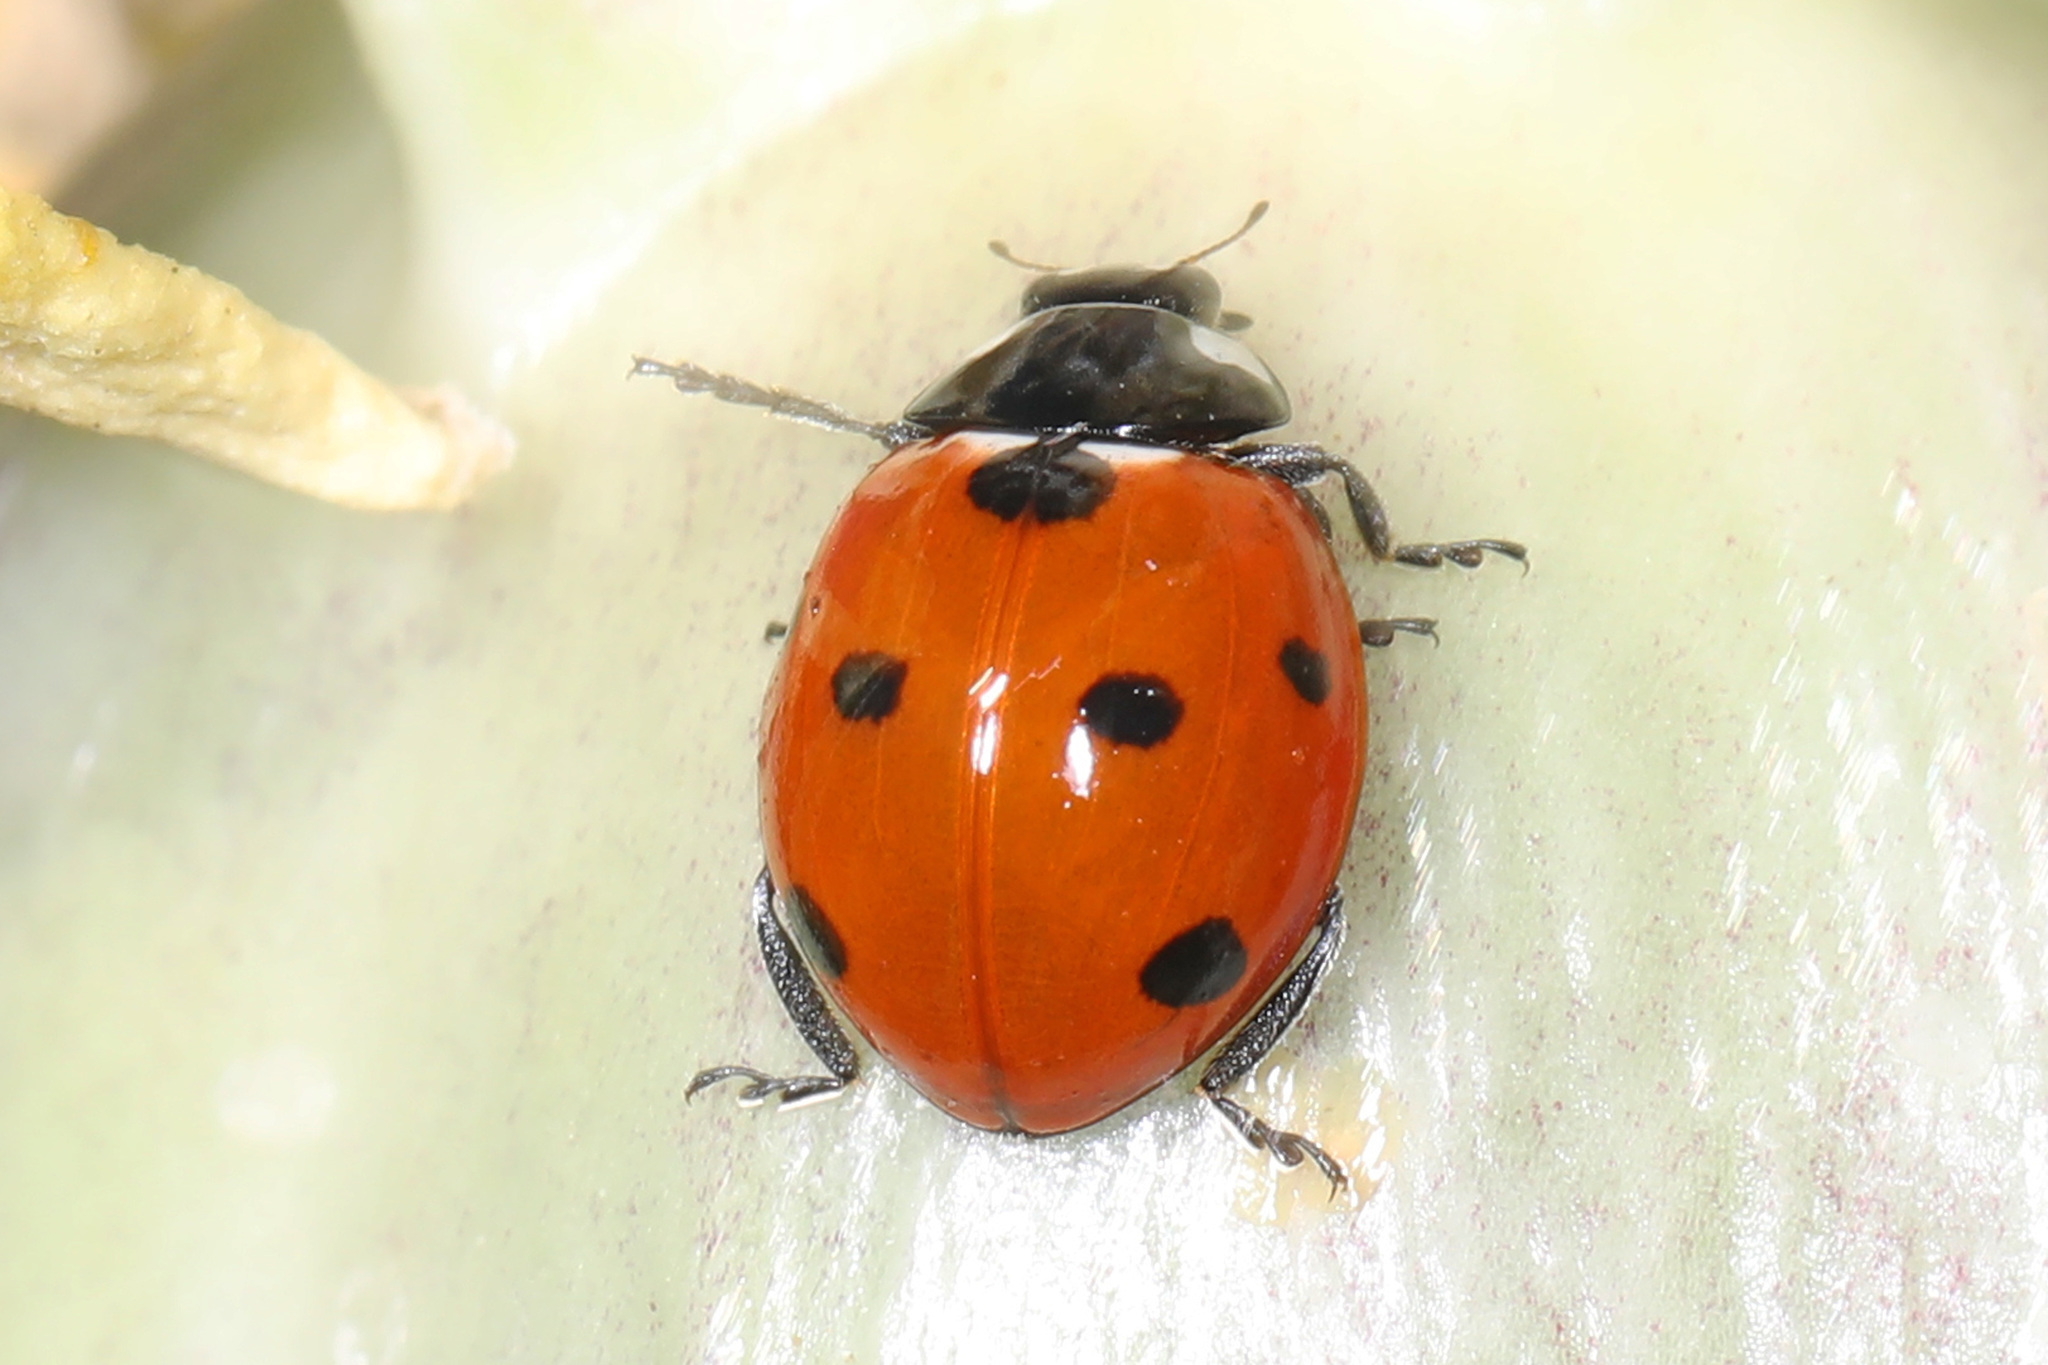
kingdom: Animalia
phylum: Arthropoda
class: Insecta
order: Coleoptera
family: Coccinellidae
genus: Coccinella
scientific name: Coccinella septempunctata
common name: Sevenspotted lady beetle
